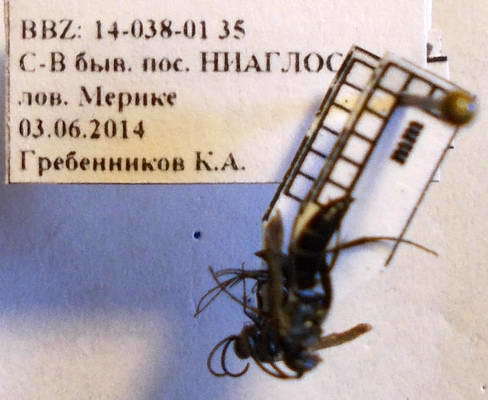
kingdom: Animalia
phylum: Arthropoda
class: Insecta
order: Hymenoptera
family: Pompilidae
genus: Aporinellus
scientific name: Aporinellus sexmaculatus
